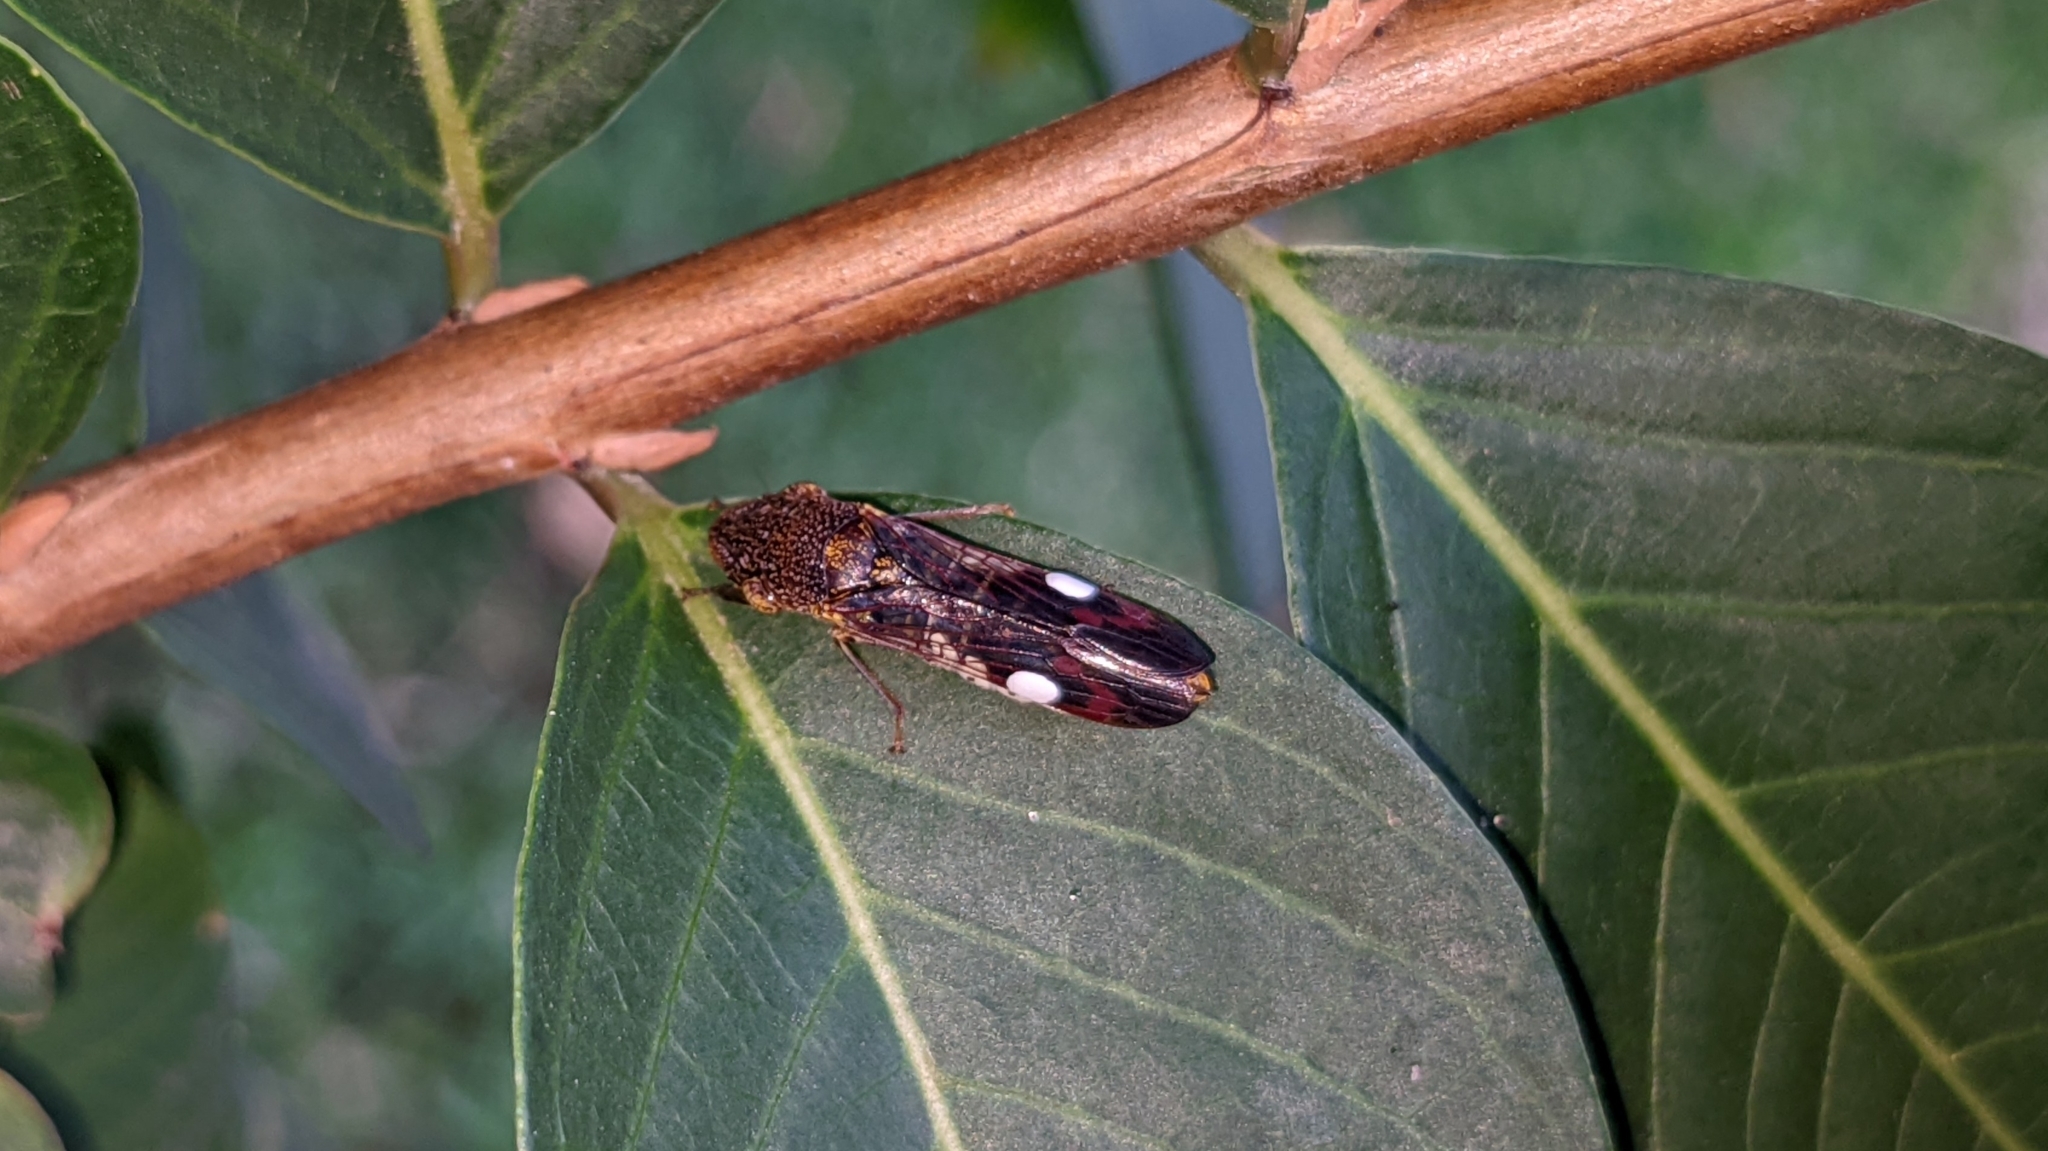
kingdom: Animalia
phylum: Arthropoda
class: Insecta
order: Hemiptera
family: Cicadellidae
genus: Homalodisca
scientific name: Homalodisca vitripennis
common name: Glassy-winged sharpshooter
